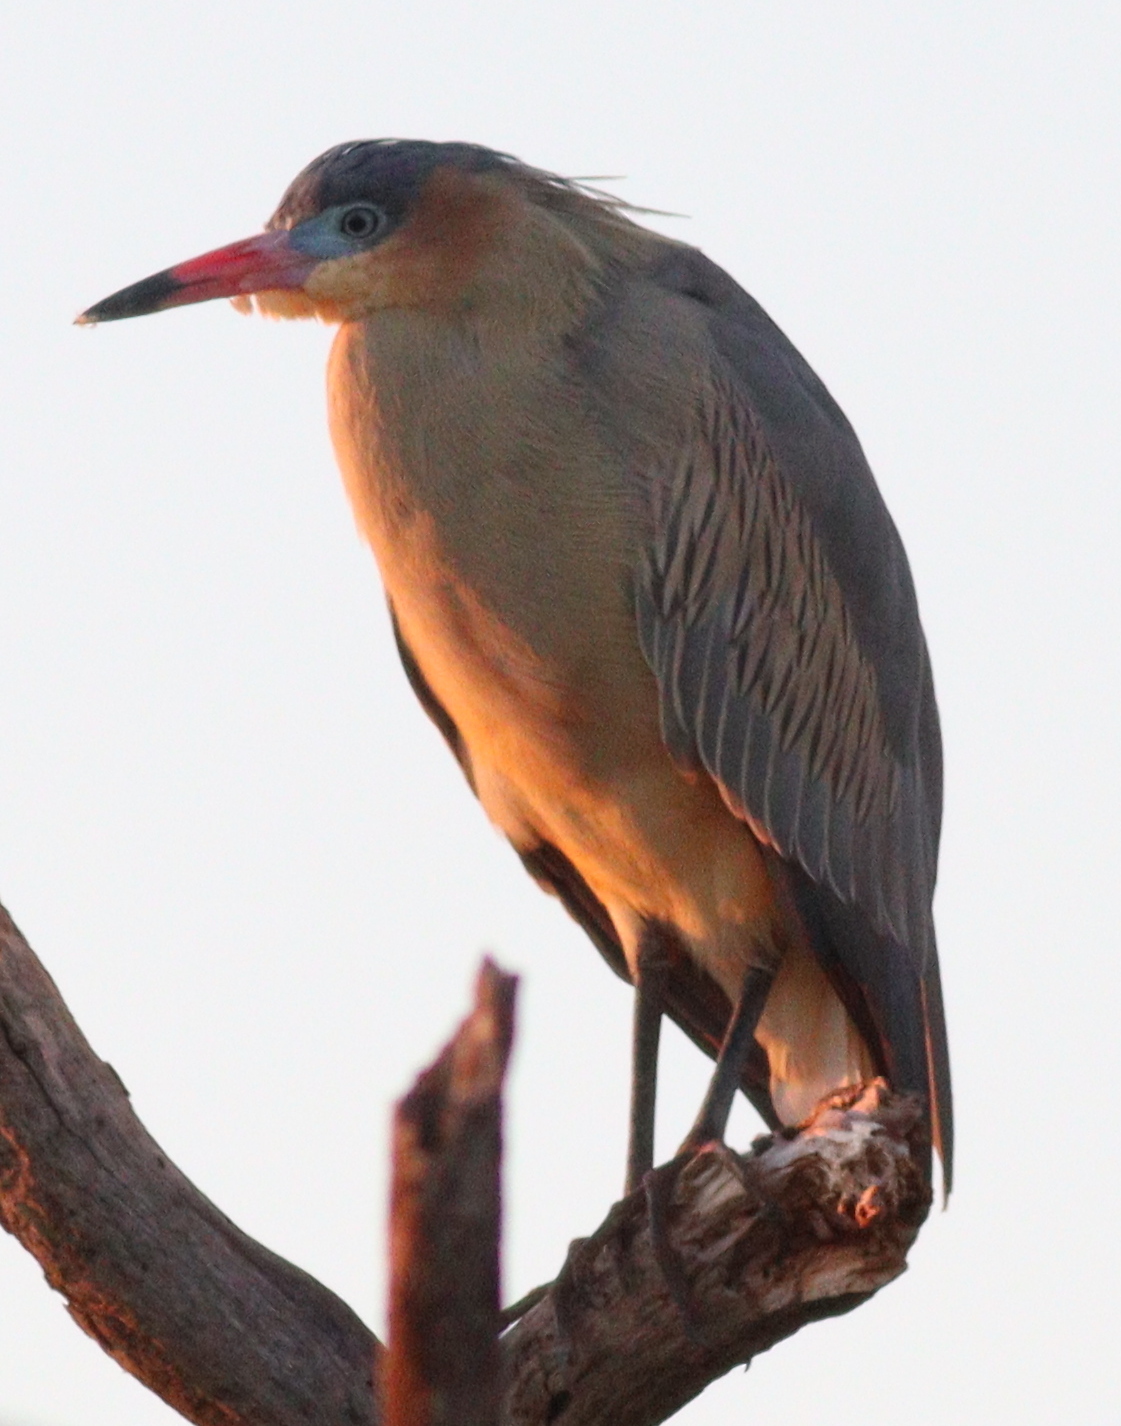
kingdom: Animalia
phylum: Chordata
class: Aves
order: Pelecaniformes
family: Ardeidae
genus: Syrigma
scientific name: Syrigma sibilatrix
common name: Whistling heron
